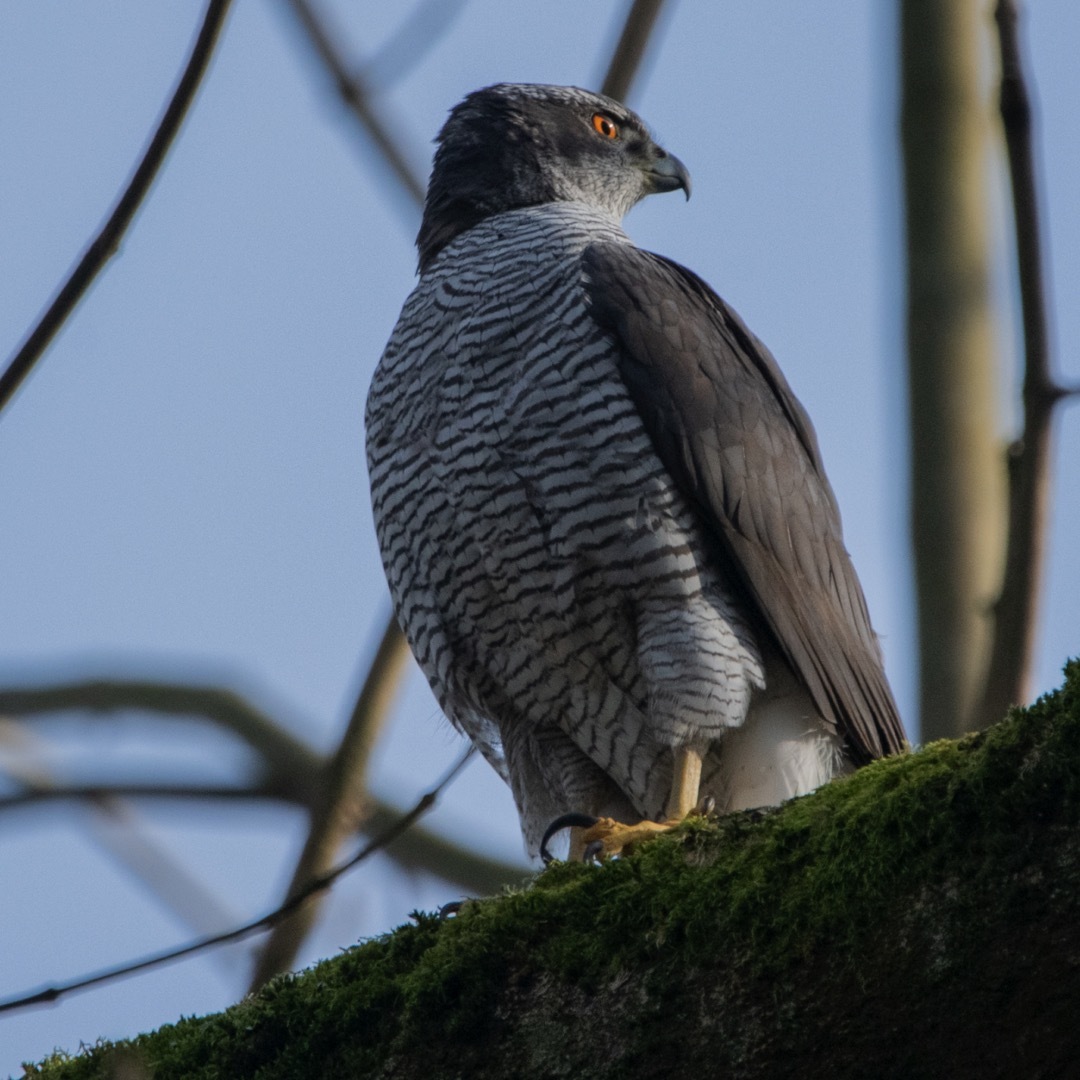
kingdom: Animalia
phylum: Chordata
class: Aves
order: Accipitriformes
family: Accipitridae
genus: Accipiter
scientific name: Accipiter gentilis
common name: Northern goshawk
